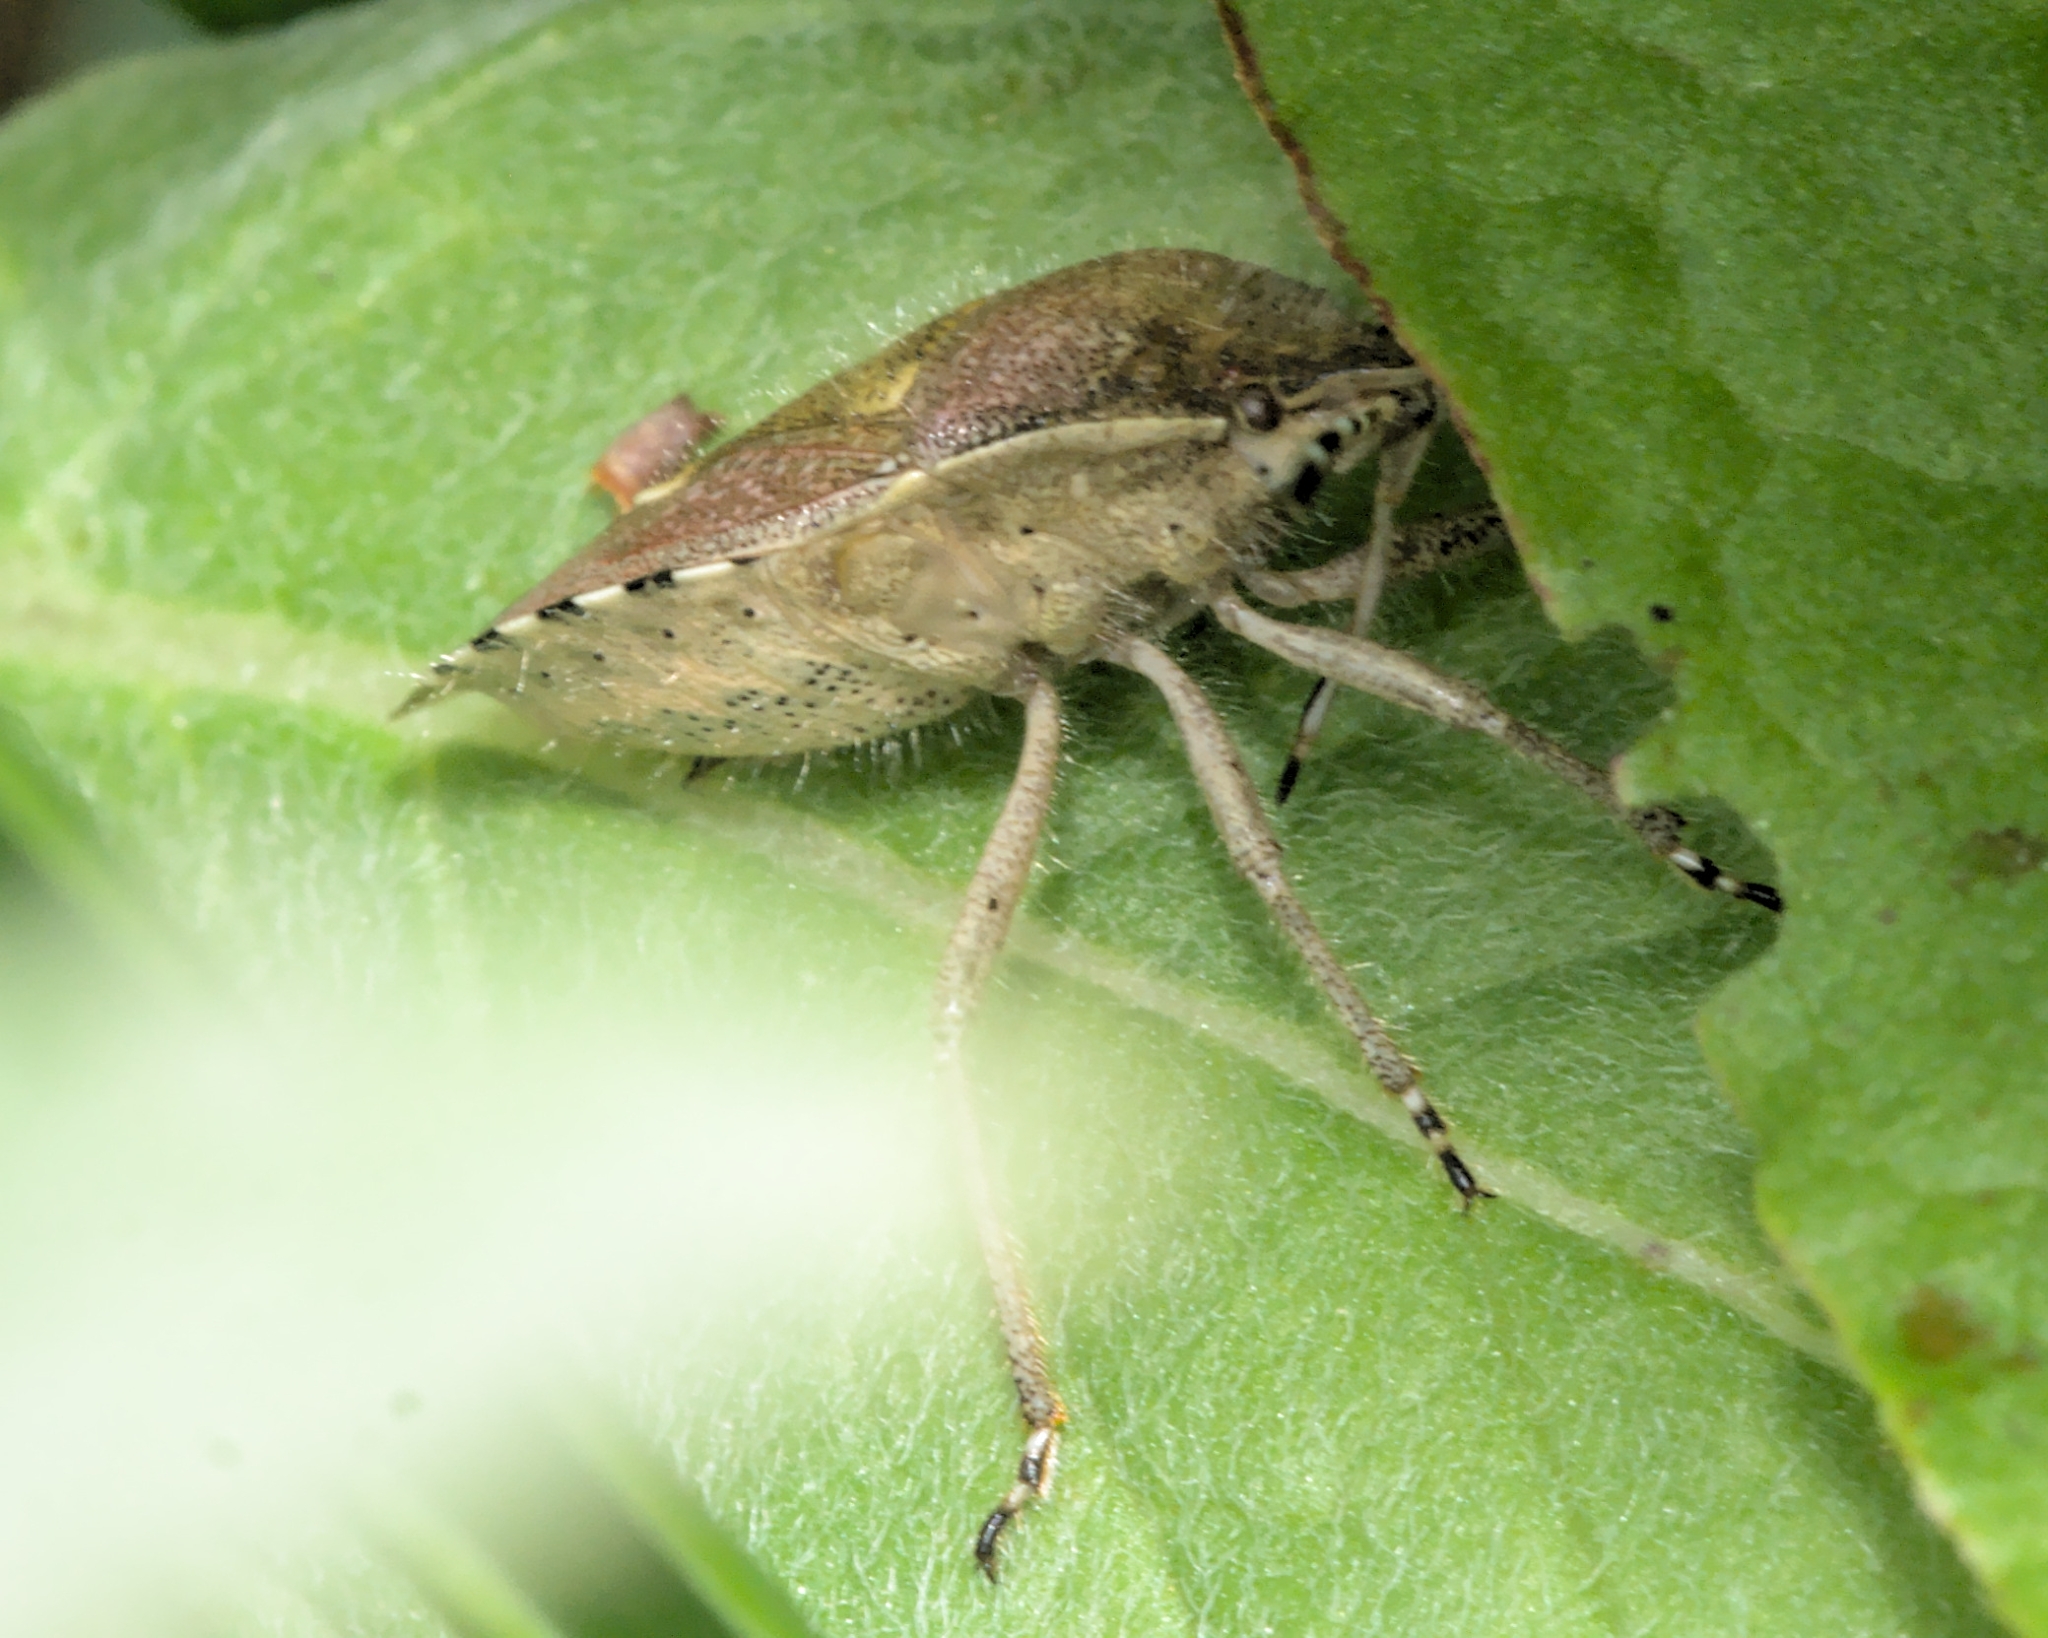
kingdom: Animalia
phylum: Arthropoda
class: Insecta
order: Hemiptera
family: Pentatomidae
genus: Dolycoris
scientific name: Dolycoris baccarum
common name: Sloe bug
